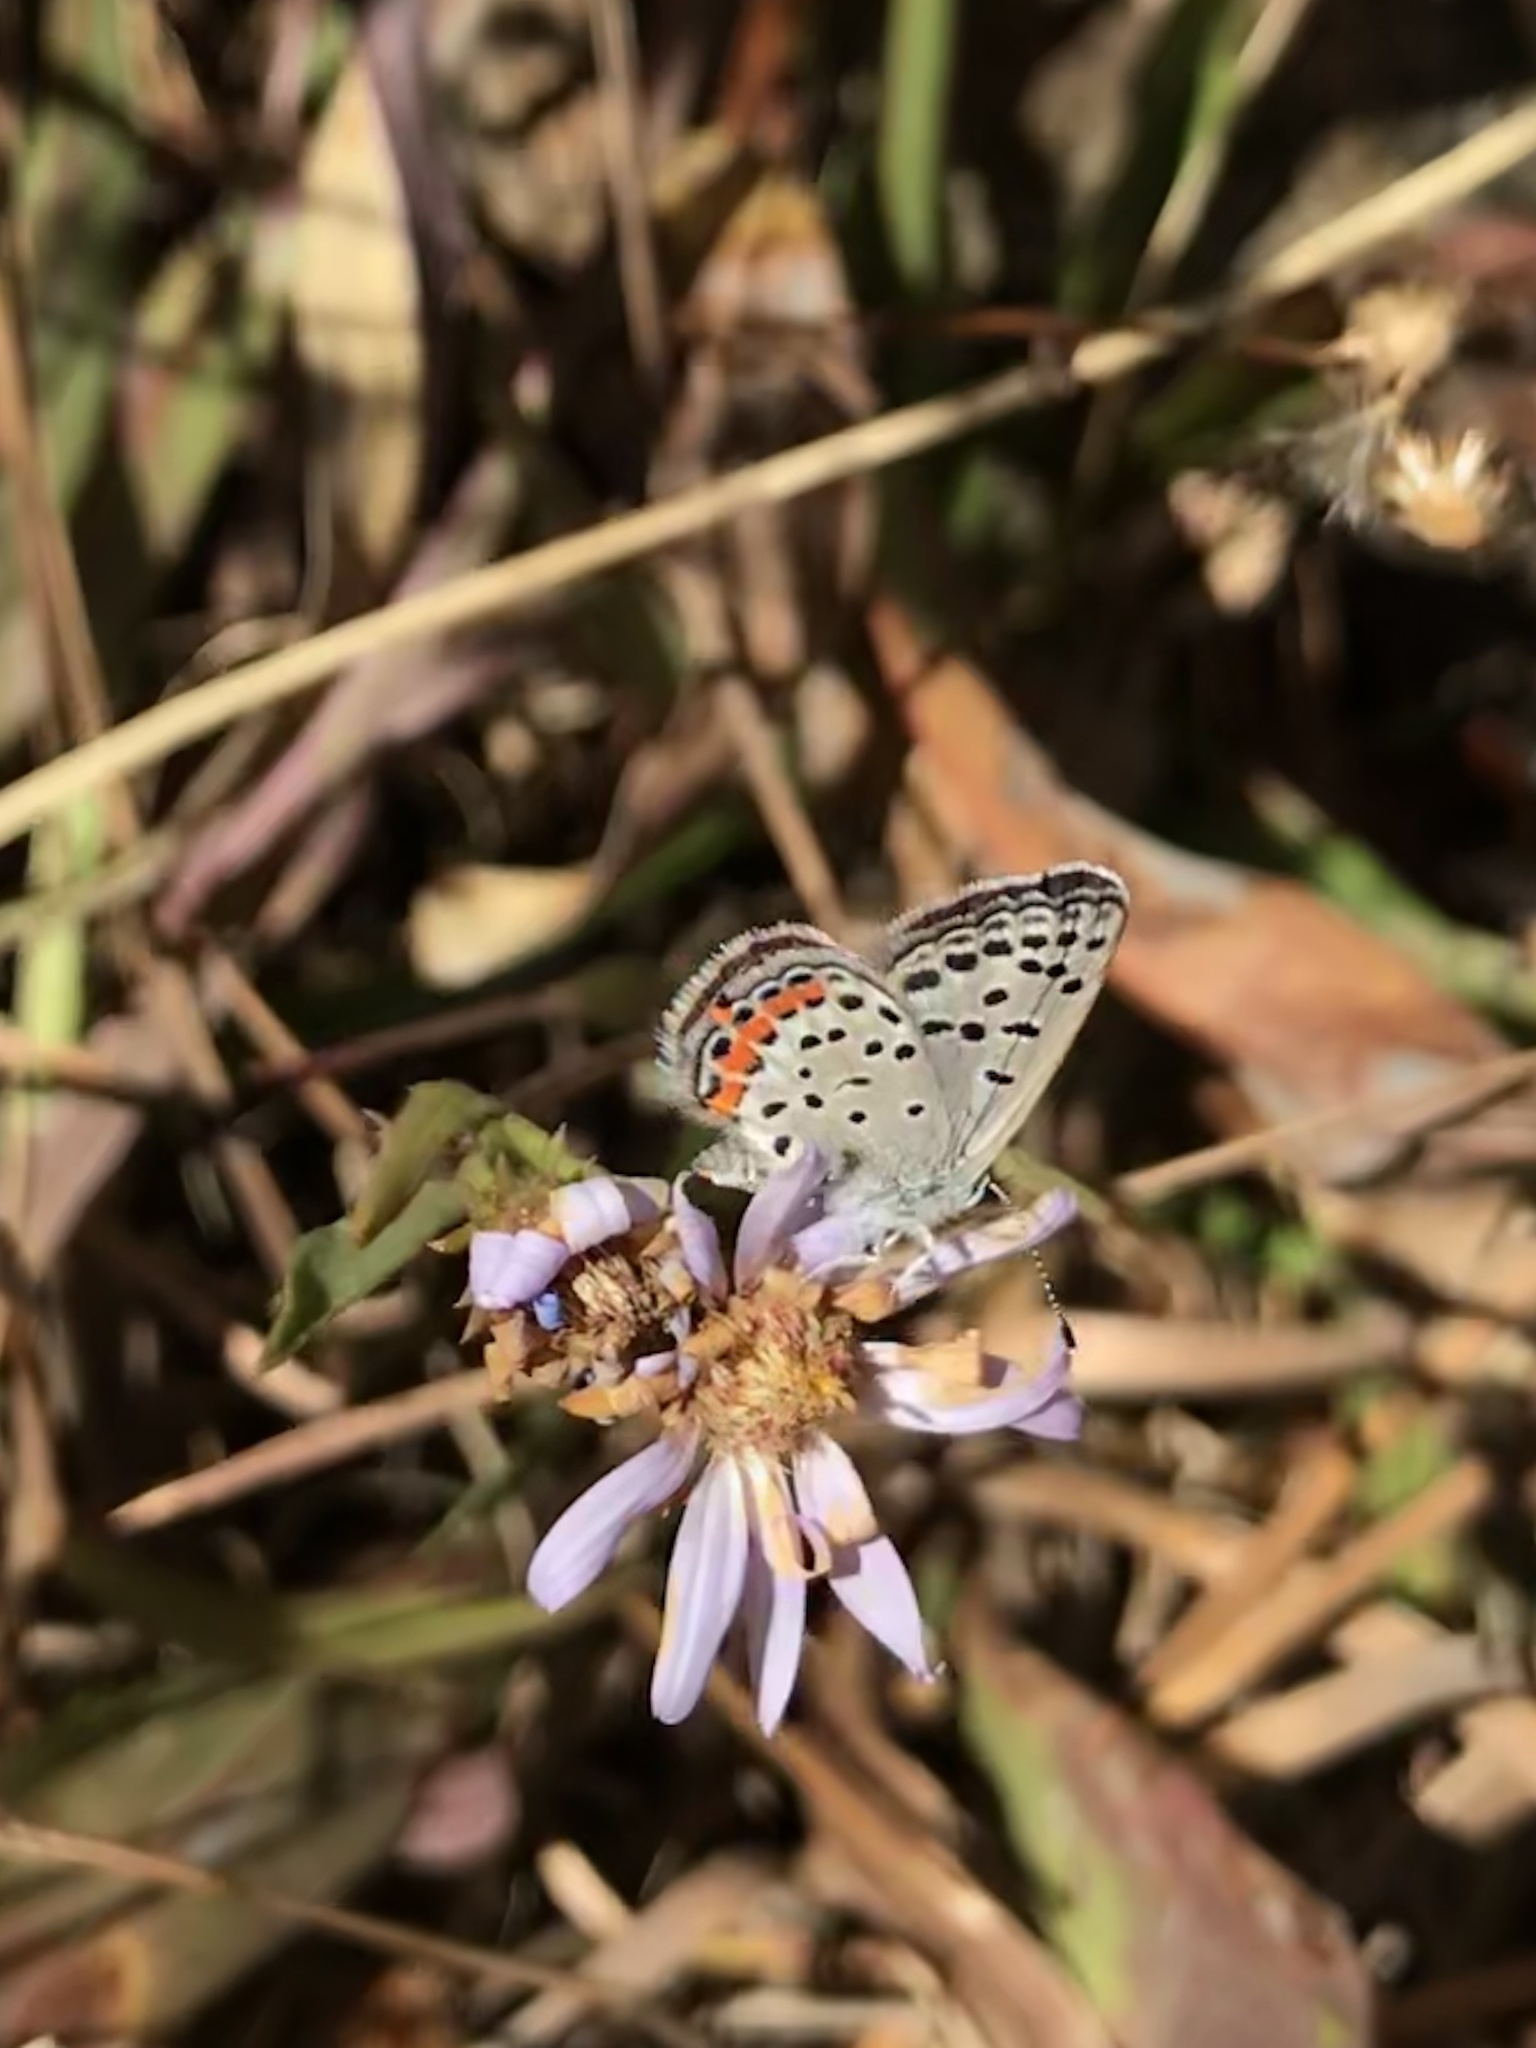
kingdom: Animalia
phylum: Arthropoda
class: Insecta
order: Lepidoptera
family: Lycaenidae
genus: Icaricia
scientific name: Icaricia acmon
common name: Acmon blue
